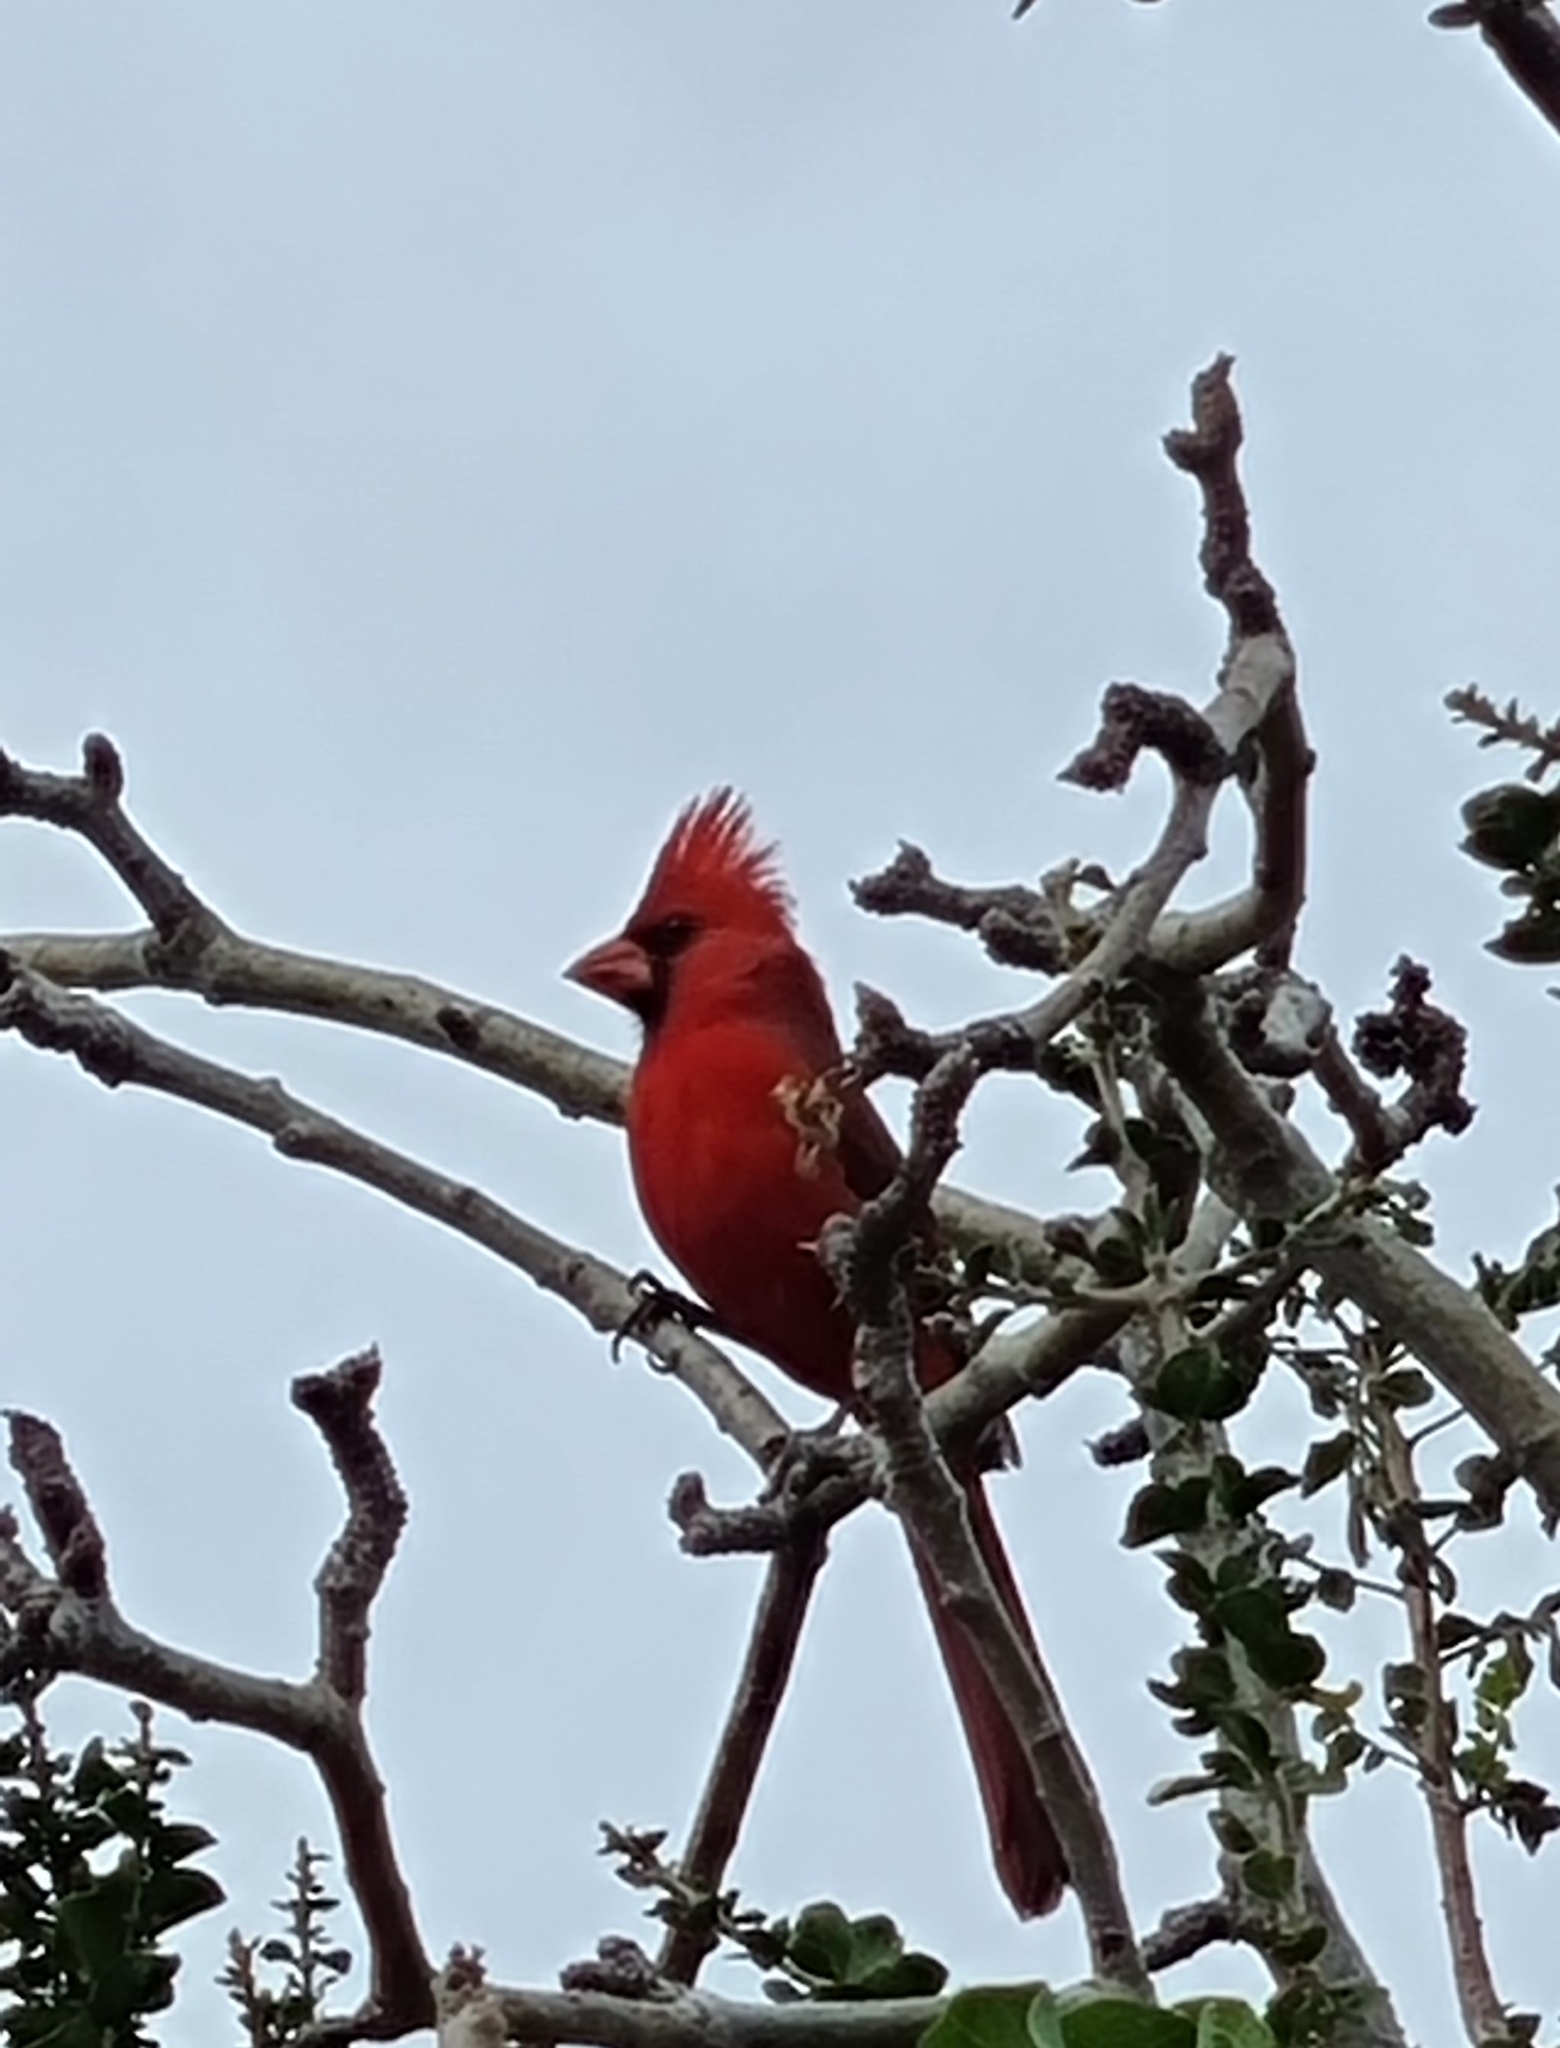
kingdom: Animalia
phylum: Chordata
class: Aves
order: Passeriformes
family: Cardinalidae
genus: Cardinalis
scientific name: Cardinalis cardinalis
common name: Northern cardinal
